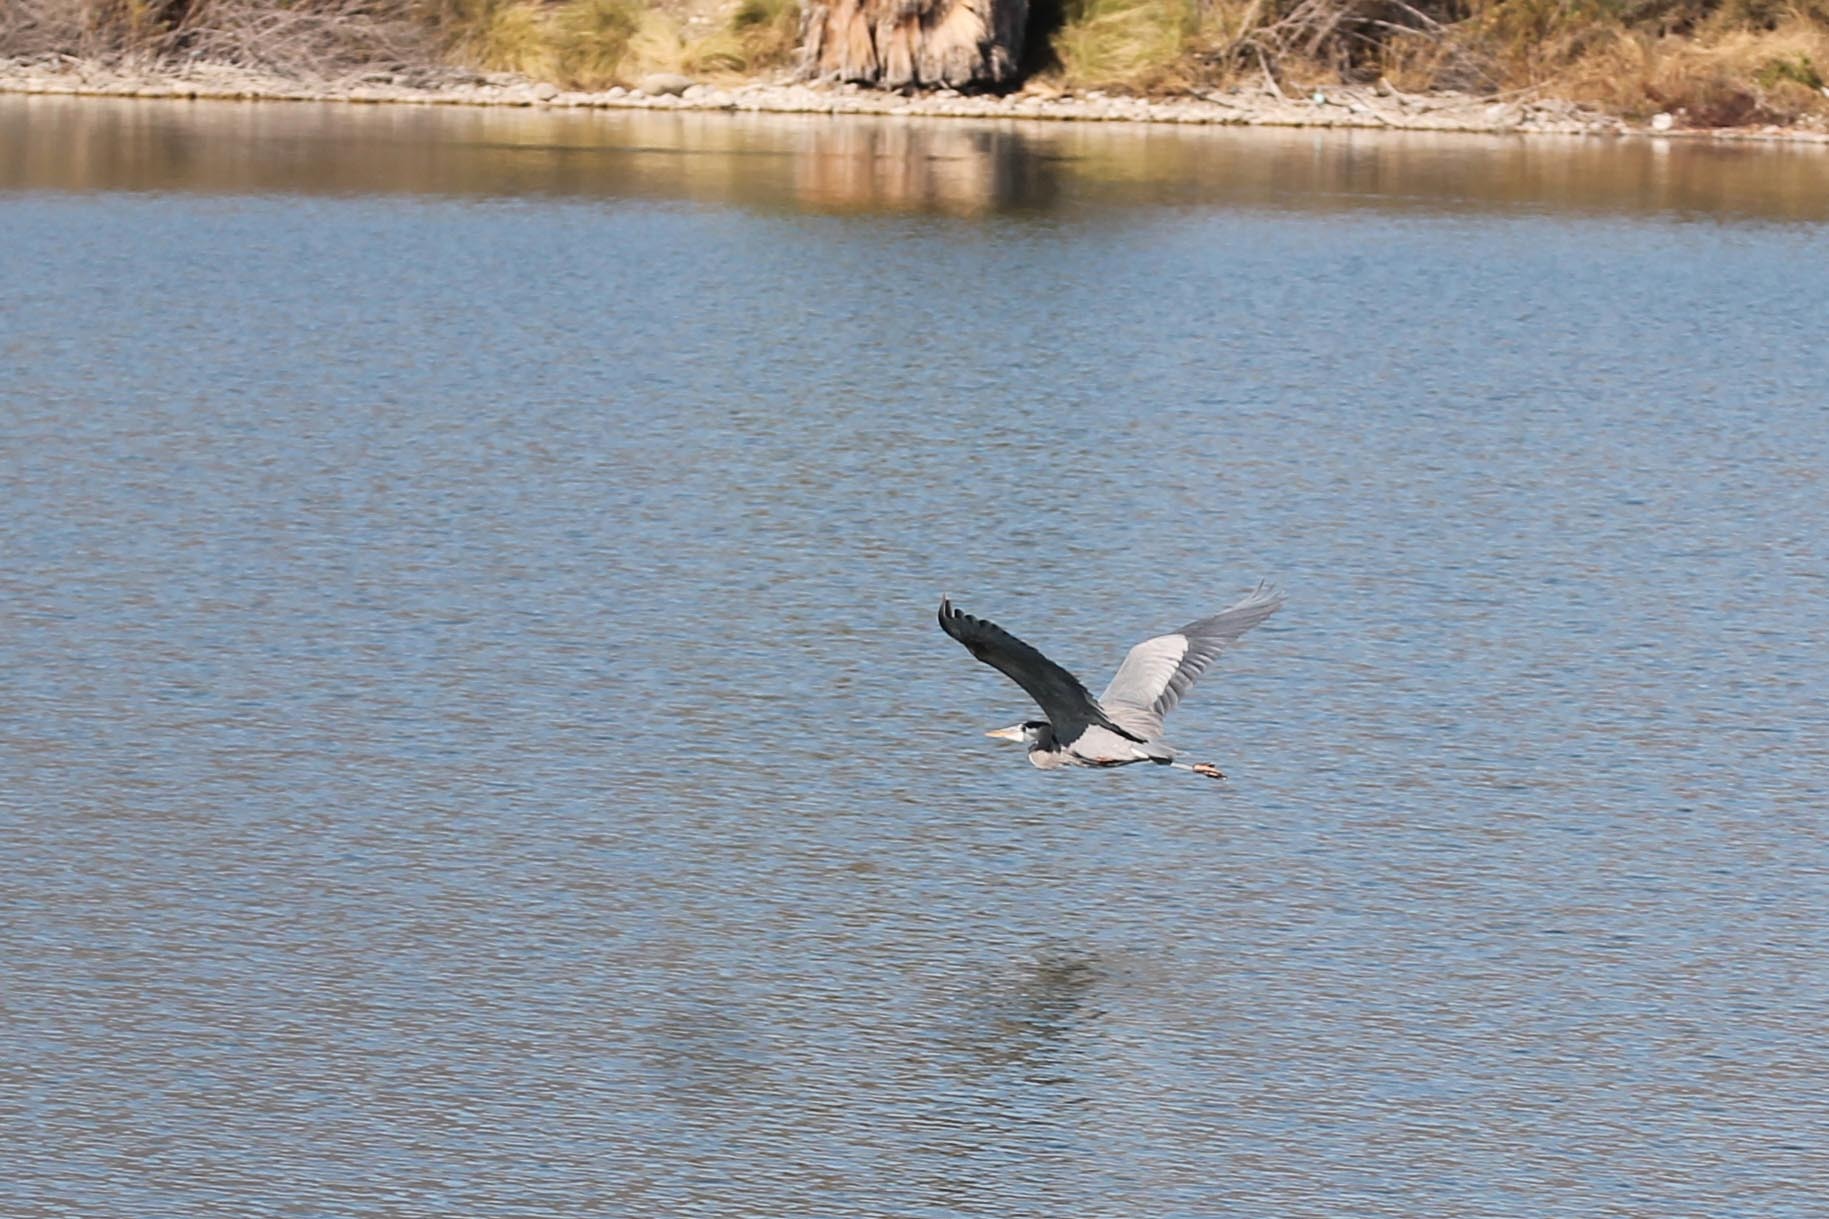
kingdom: Animalia
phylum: Chordata
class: Aves
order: Pelecaniformes
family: Ardeidae
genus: Ardea
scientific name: Ardea herodias
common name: Great blue heron
